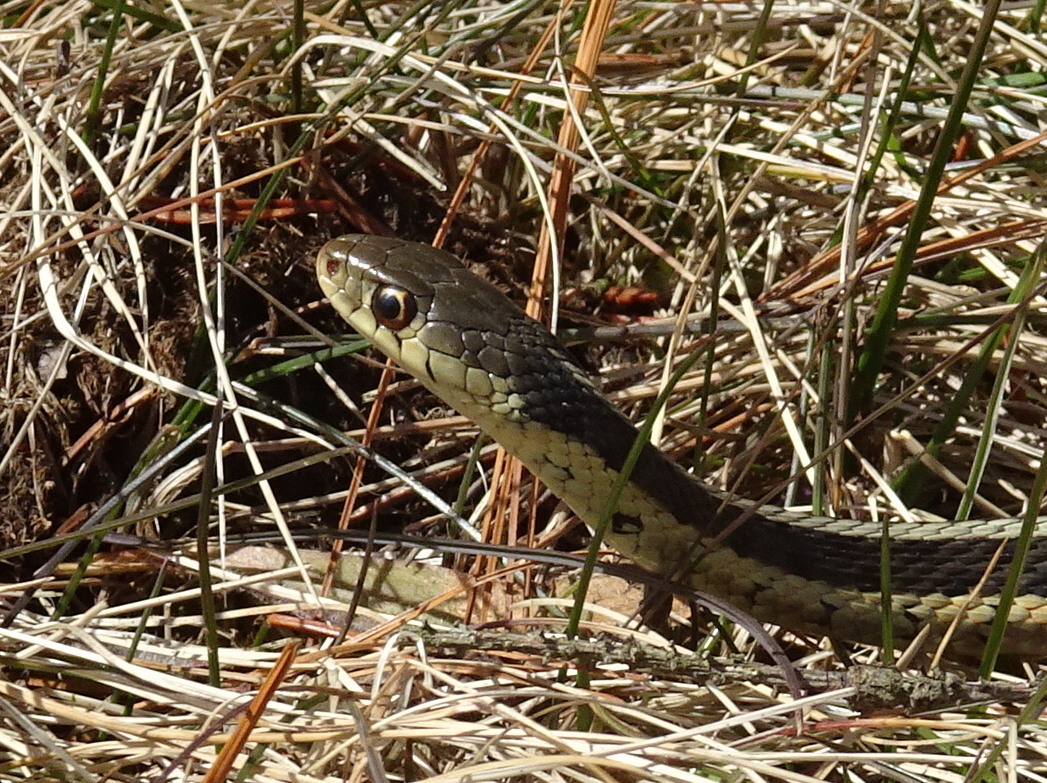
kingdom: Animalia
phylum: Chordata
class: Squamata
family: Colubridae
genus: Thamnophis
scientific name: Thamnophis sirtalis
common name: Common garter snake
